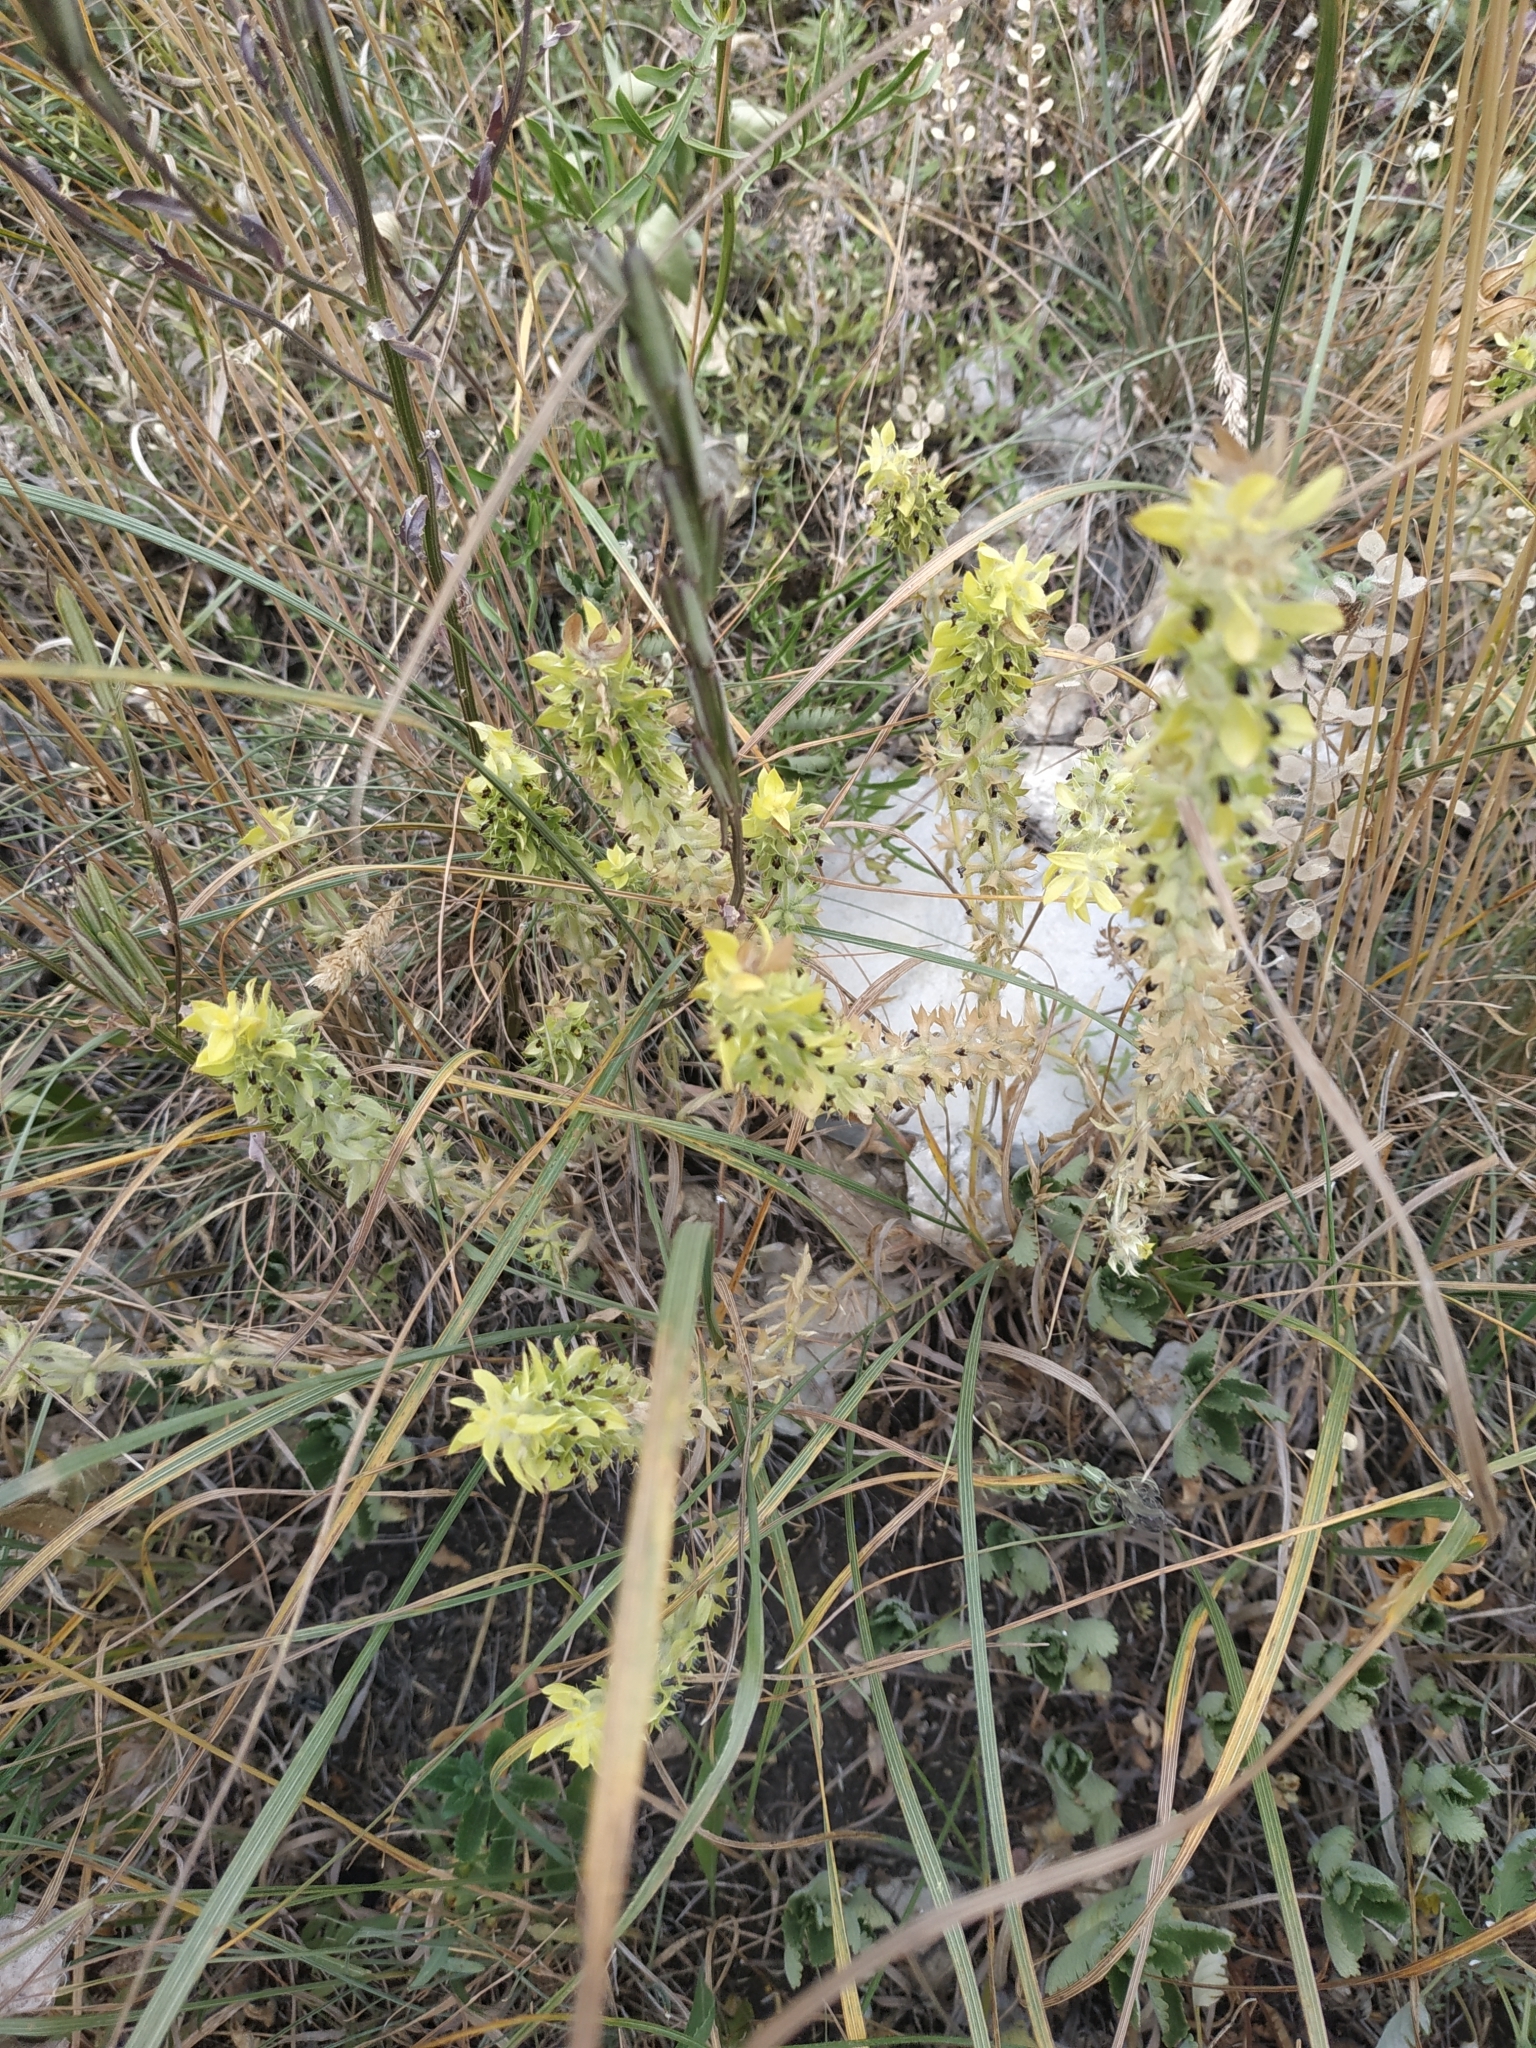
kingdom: Plantae
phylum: Tracheophyta
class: Magnoliopsida
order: Lamiales
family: Lamiaceae
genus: Sideritis
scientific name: Sideritis montana
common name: Mountain ironwort
